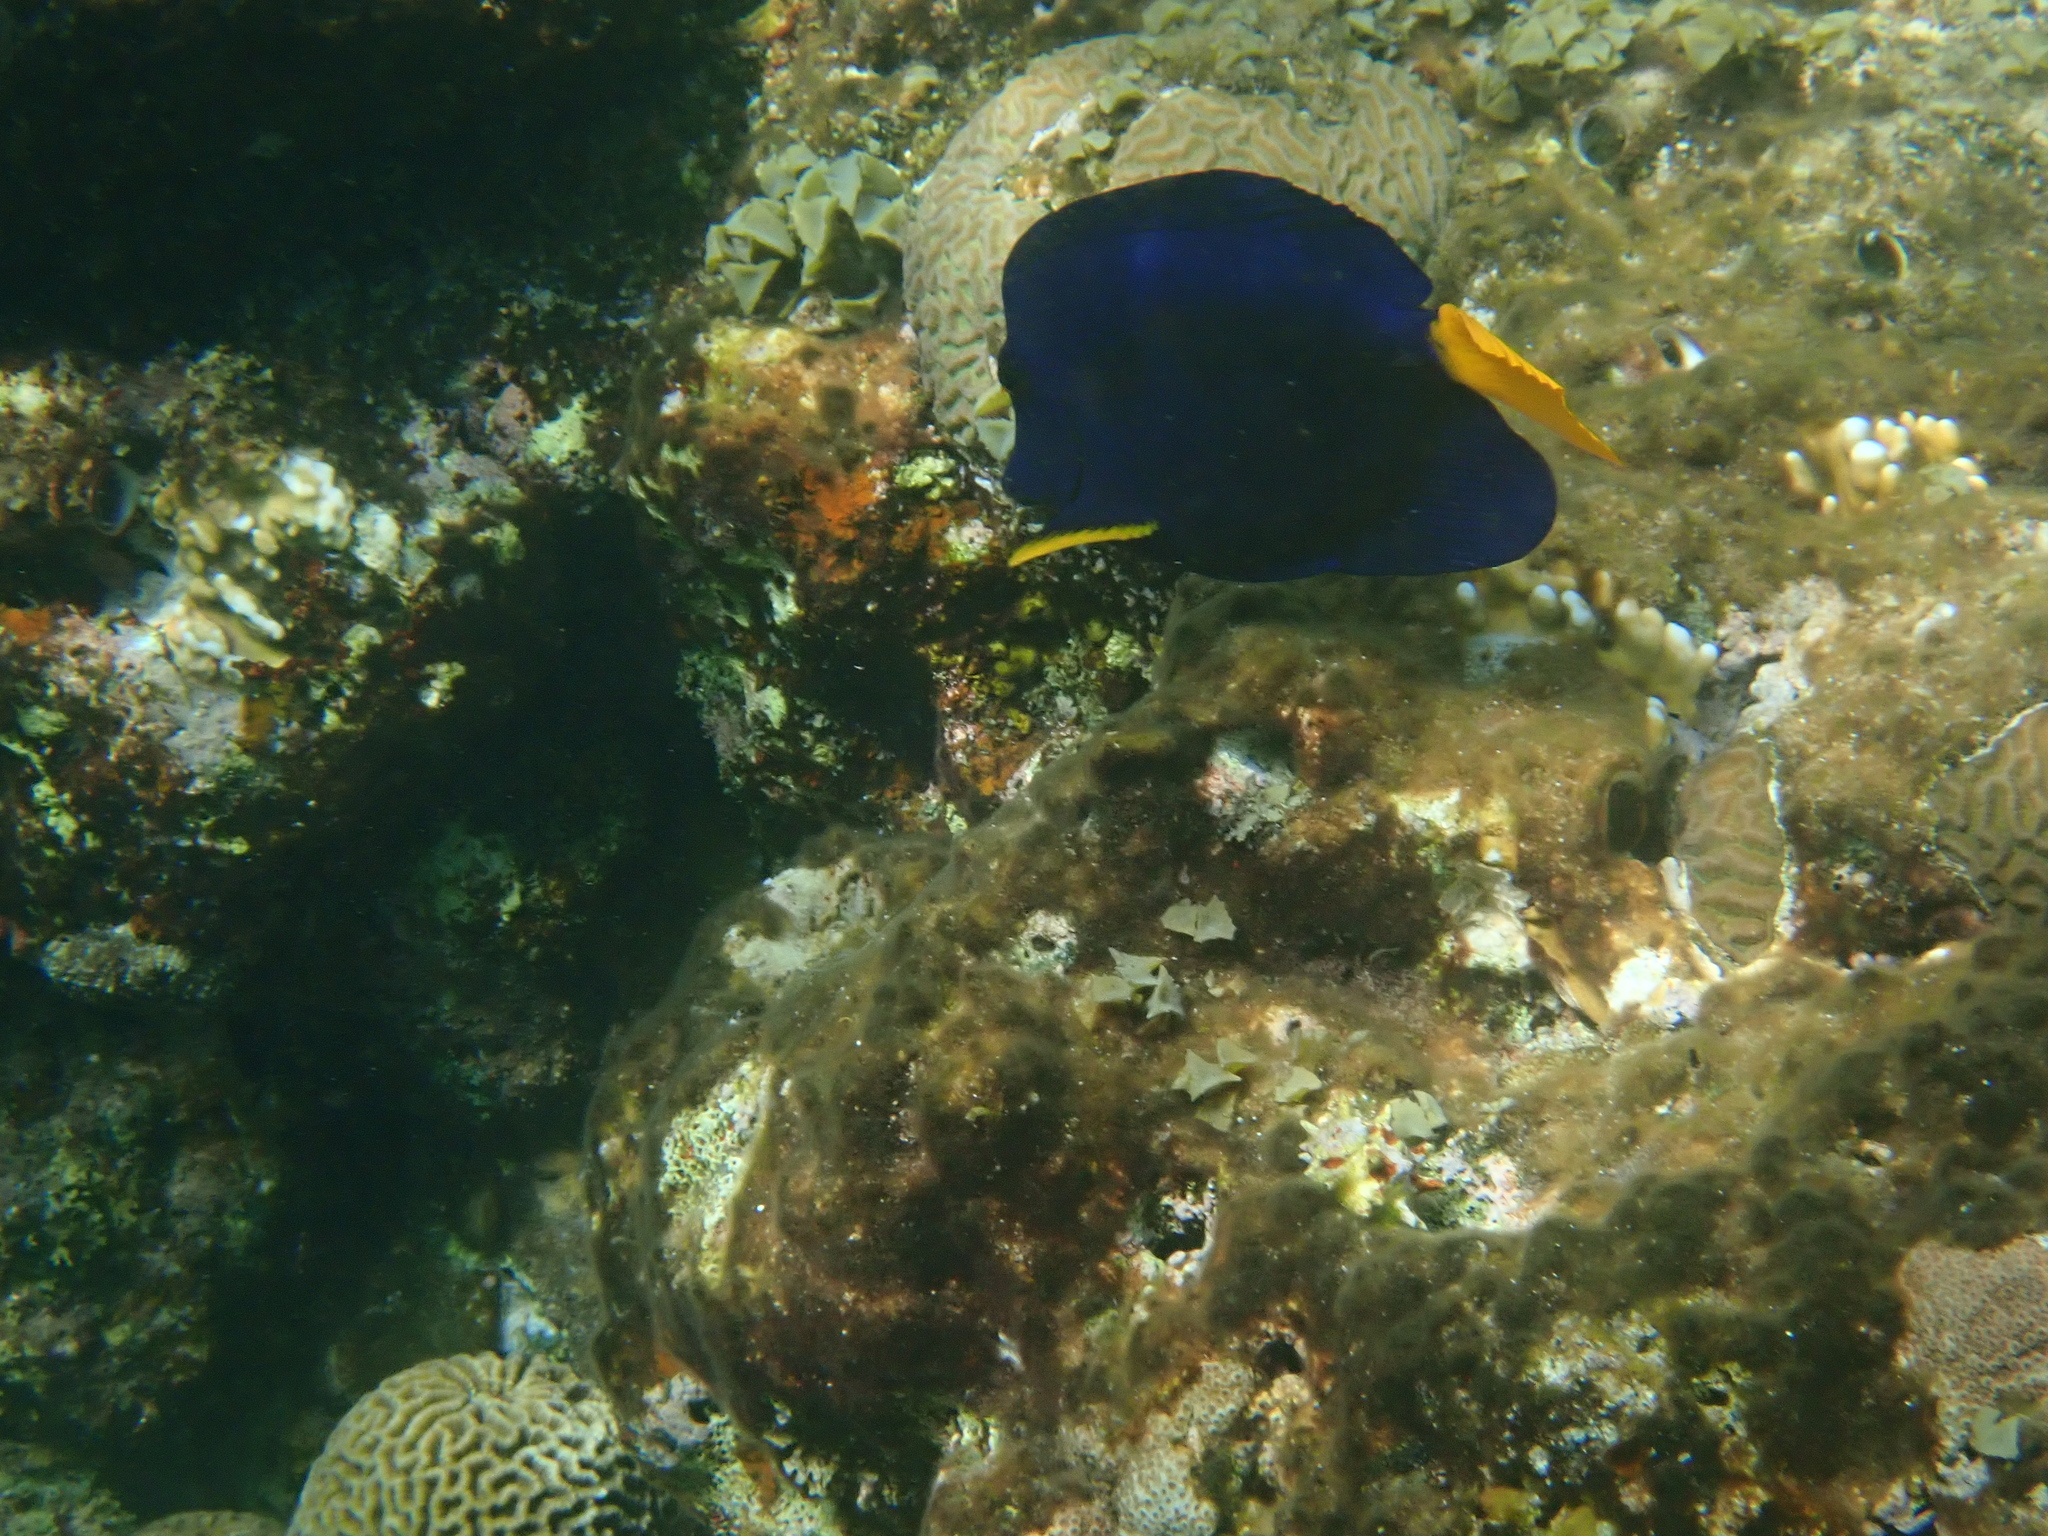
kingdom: Animalia
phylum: Chordata
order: Perciformes
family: Acanthuridae
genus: Zebrasoma
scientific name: Zebrasoma xanthurum
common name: Purple tang
